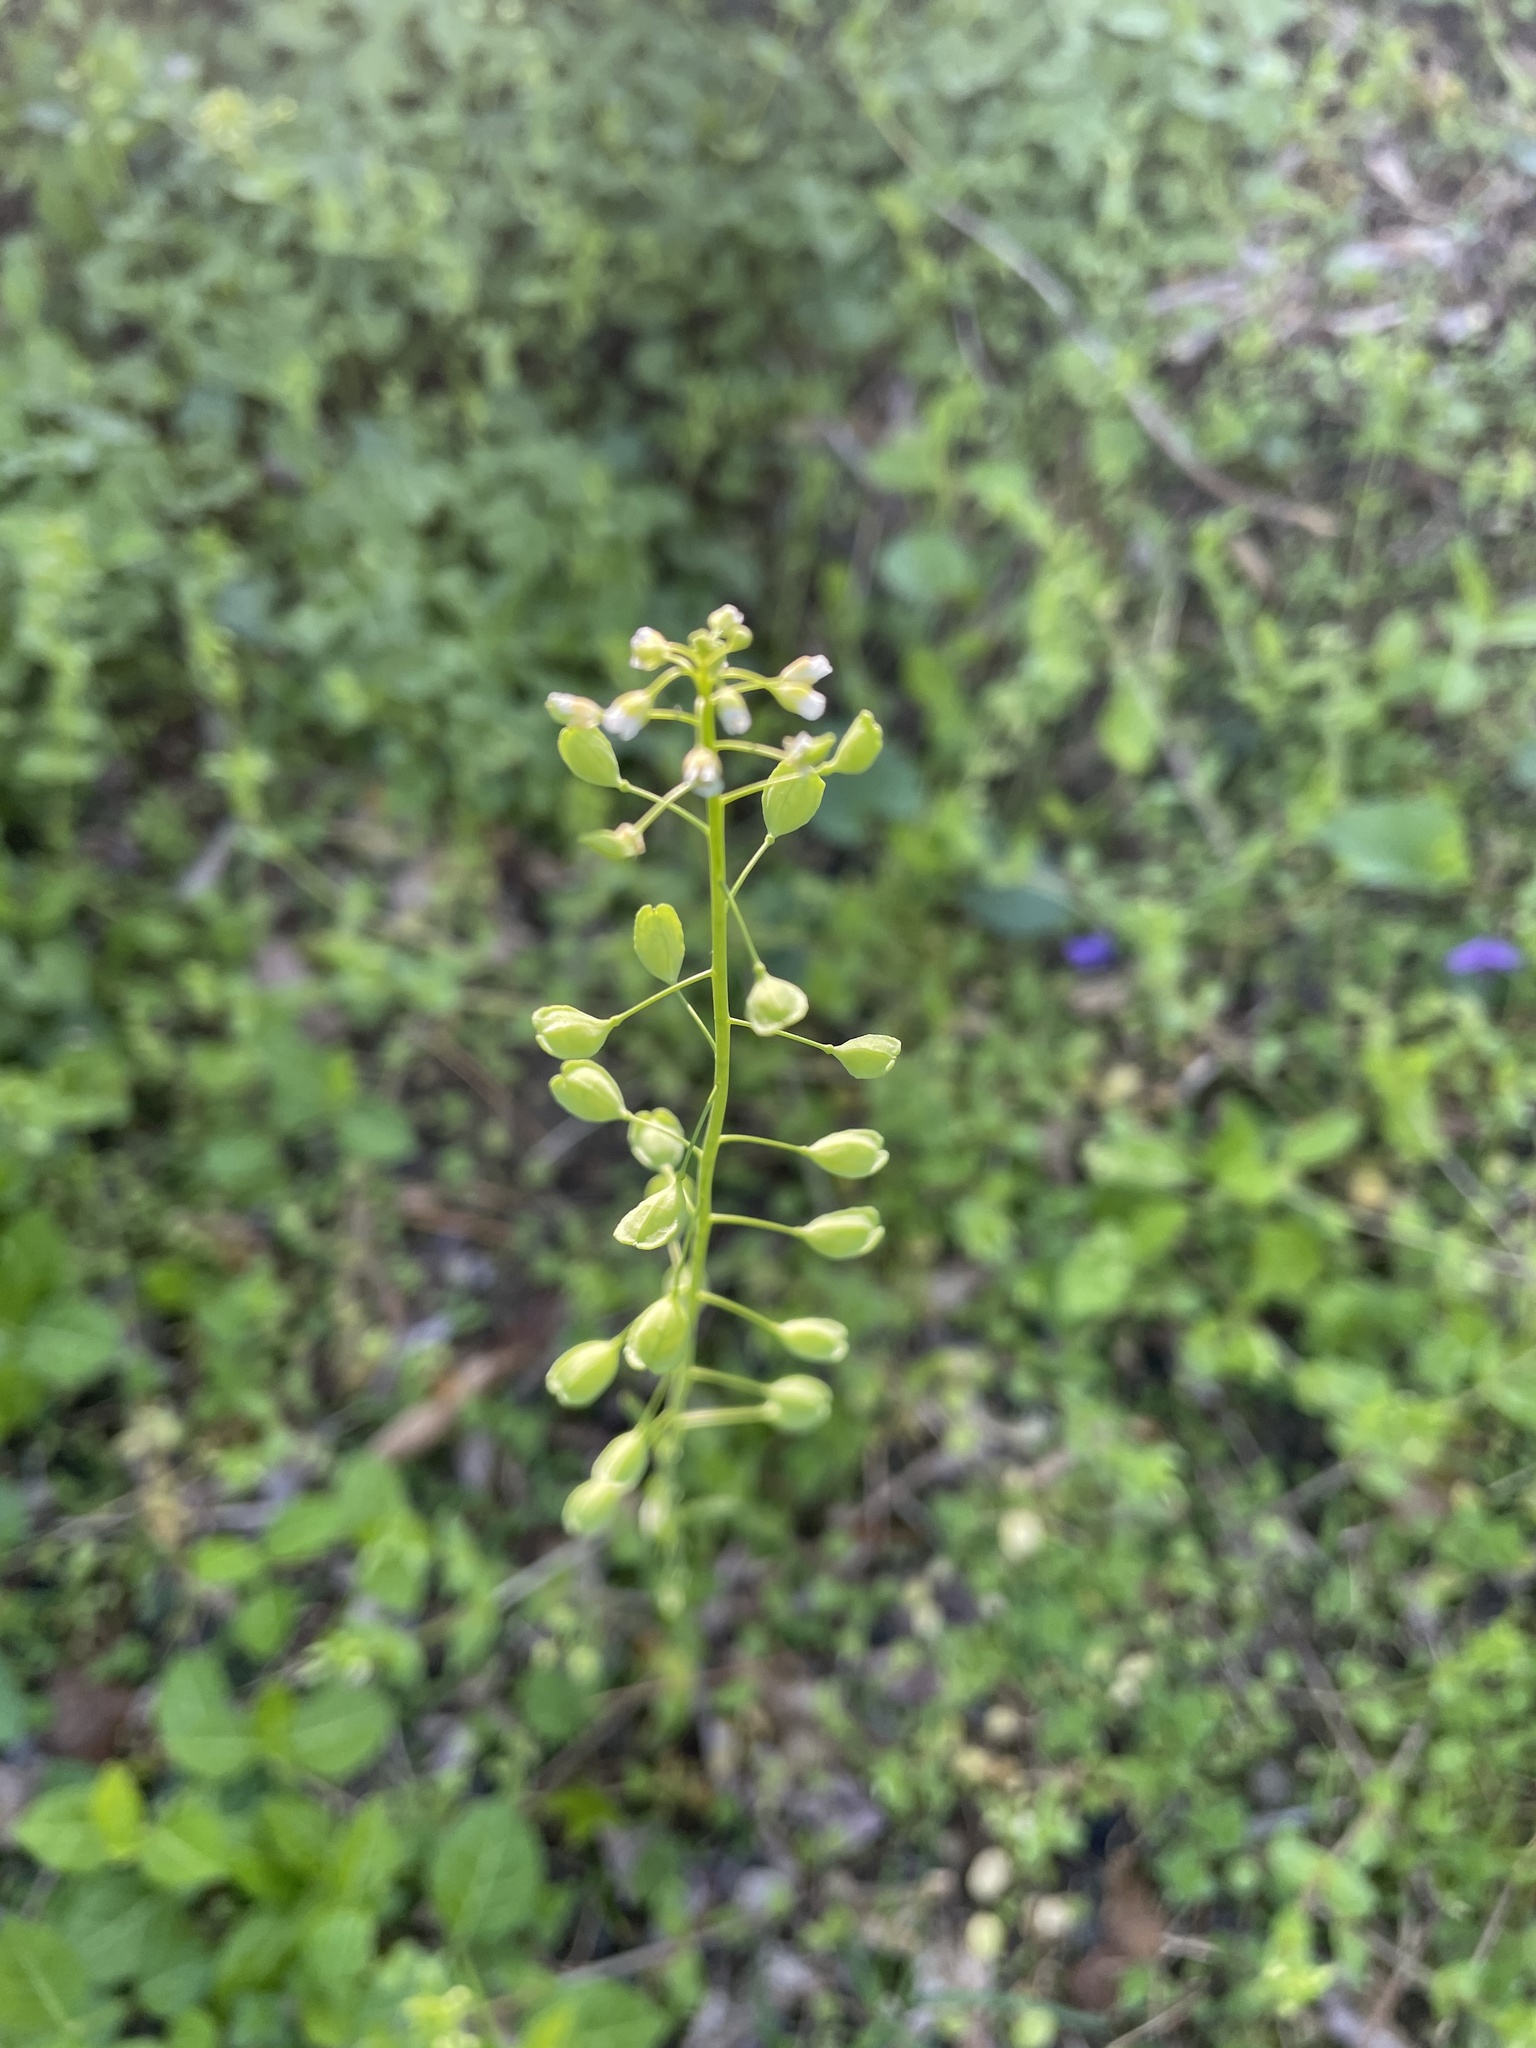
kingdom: Plantae
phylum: Tracheophyta
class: Magnoliopsida
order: Brassicales
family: Brassicaceae
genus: Mummenhoffia
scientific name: Mummenhoffia alliacea
